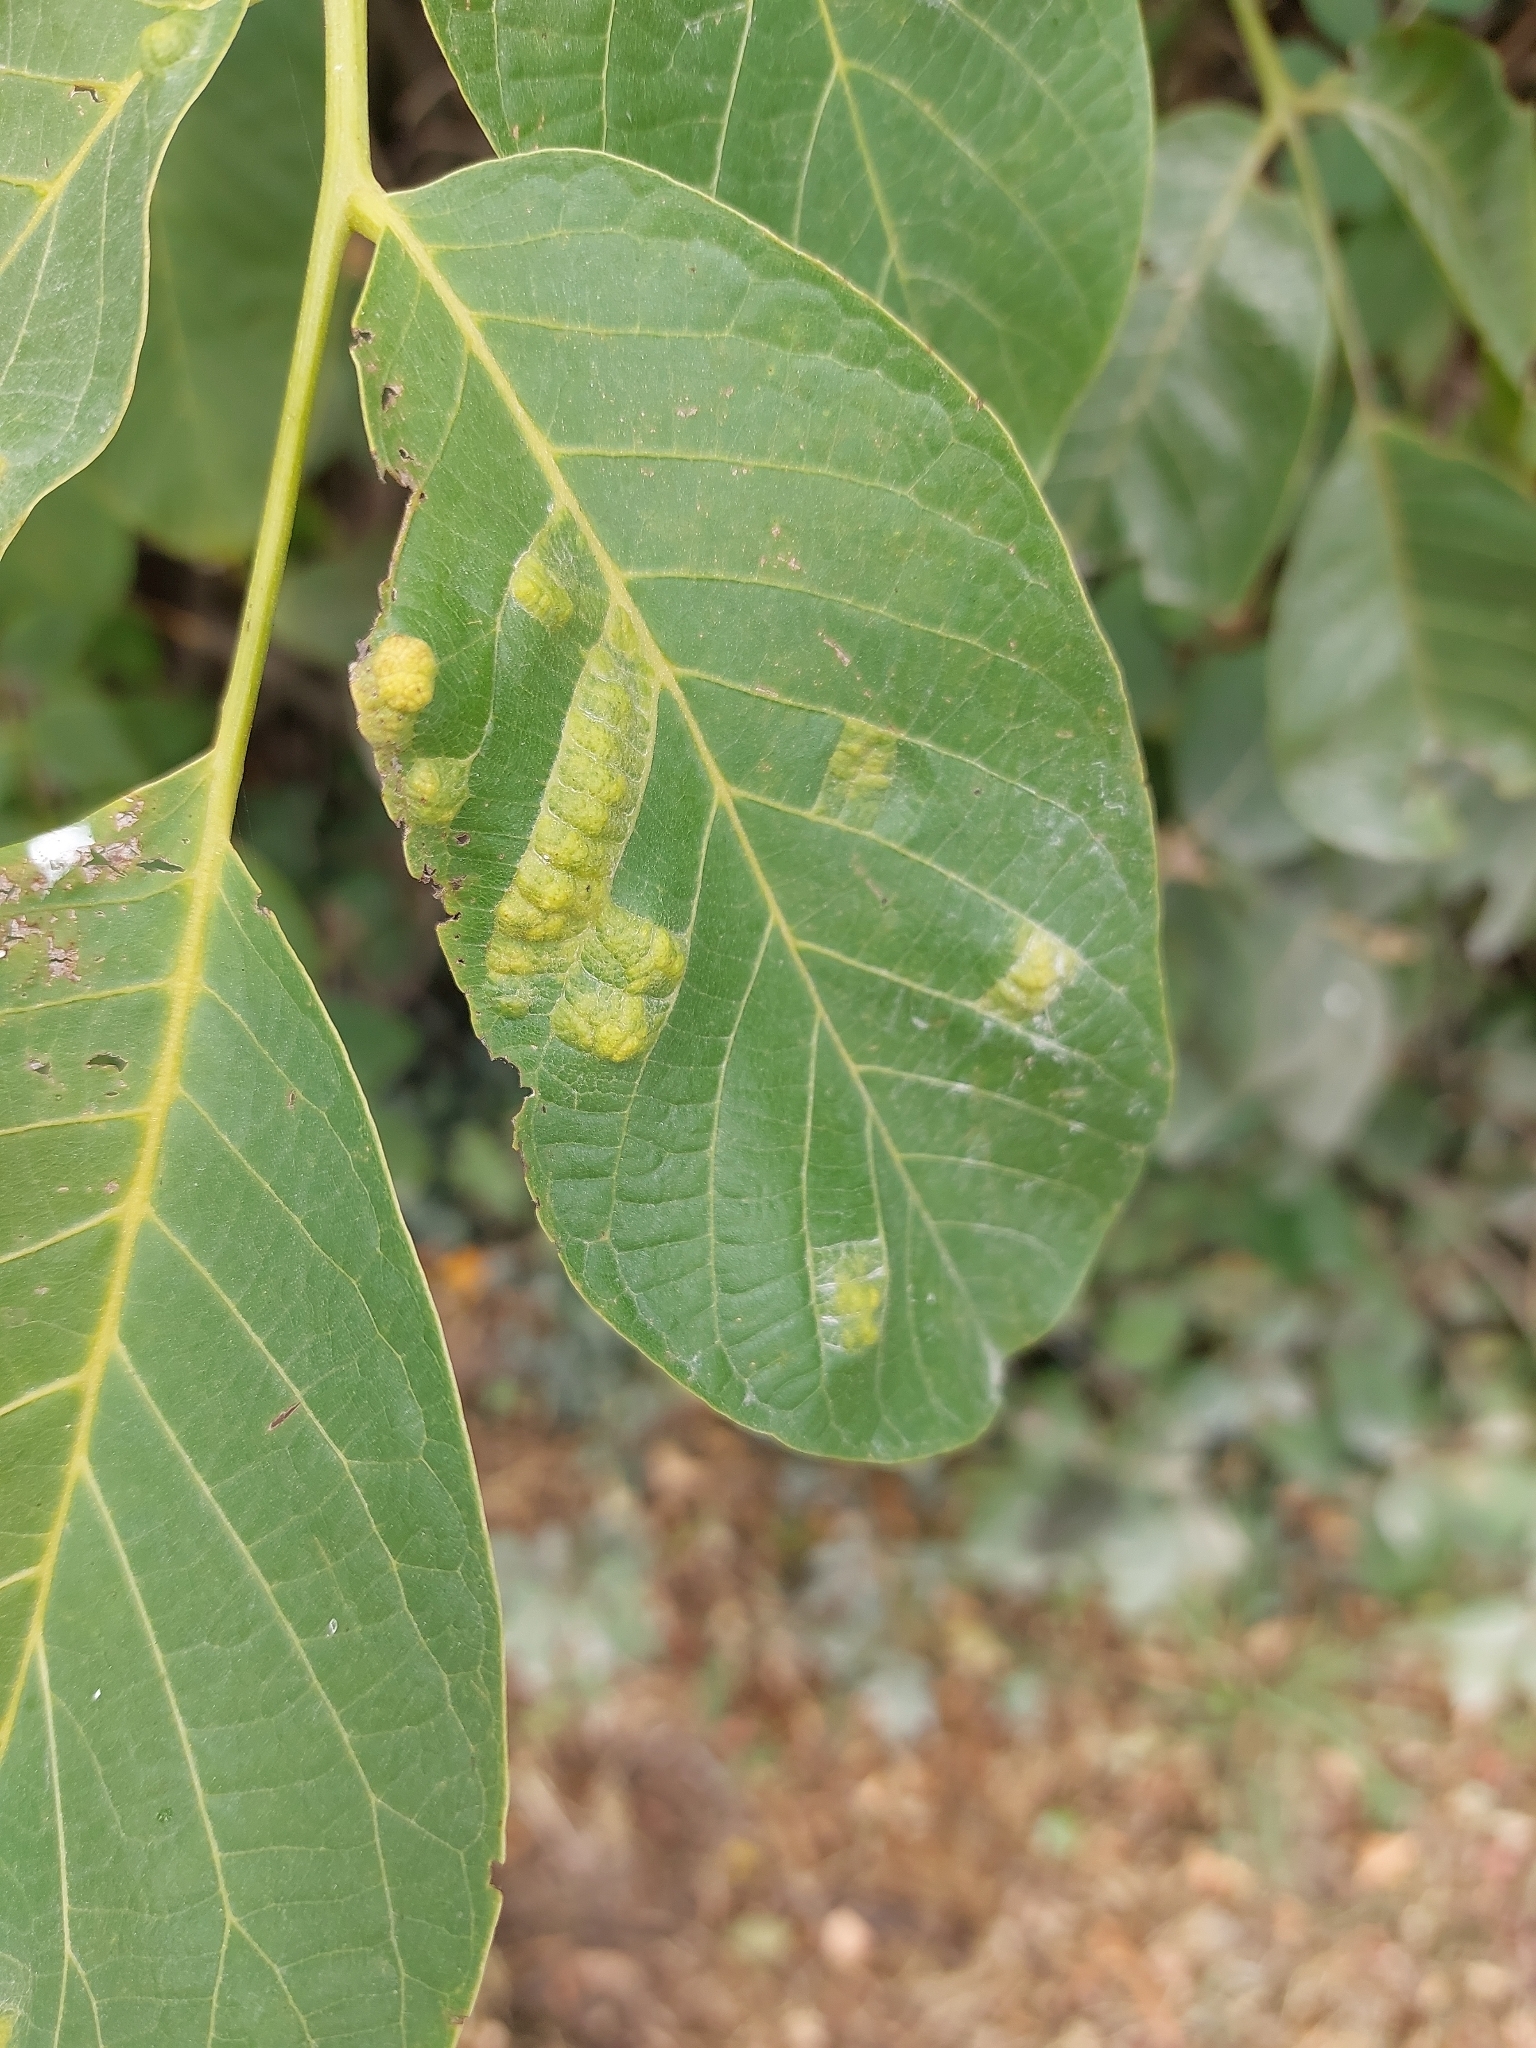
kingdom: Animalia
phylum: Arthropoda
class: Arachnida
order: Trombidiformes
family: Eriophyidae
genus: Aceria
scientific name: Aceria erinea
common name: Persian walnut erineum mite
